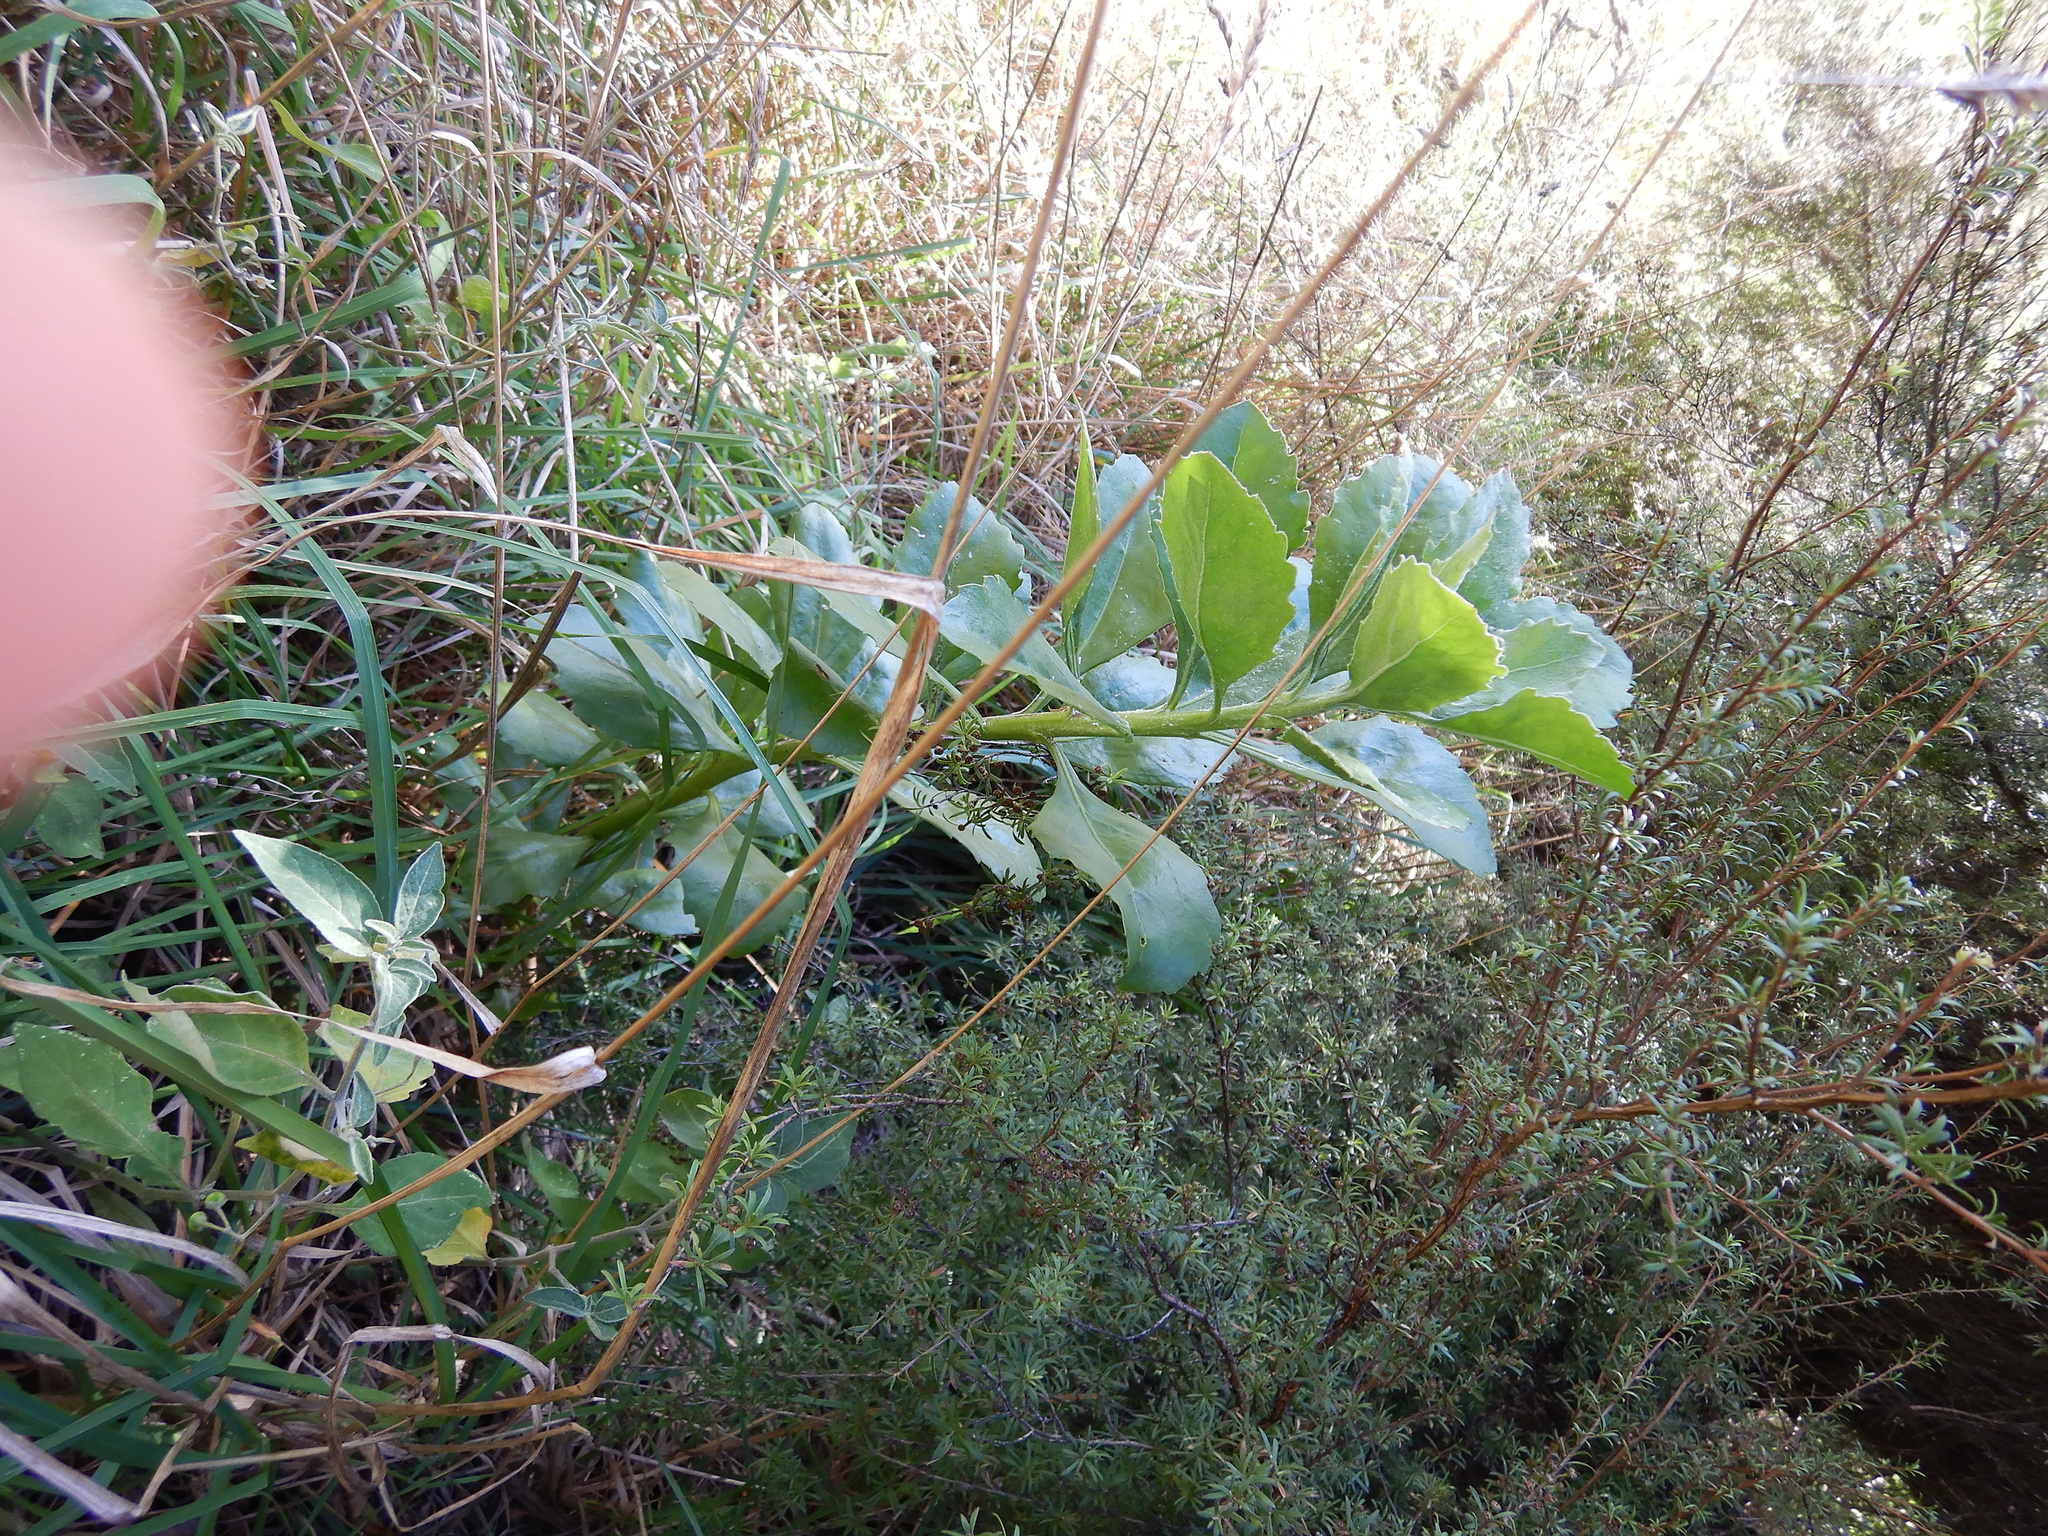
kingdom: Plantae
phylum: Tracheophyta
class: Magnoliopsida
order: Asterales
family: Asteraceae
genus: Osteospermum
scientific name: Osteospermum moniliferum
